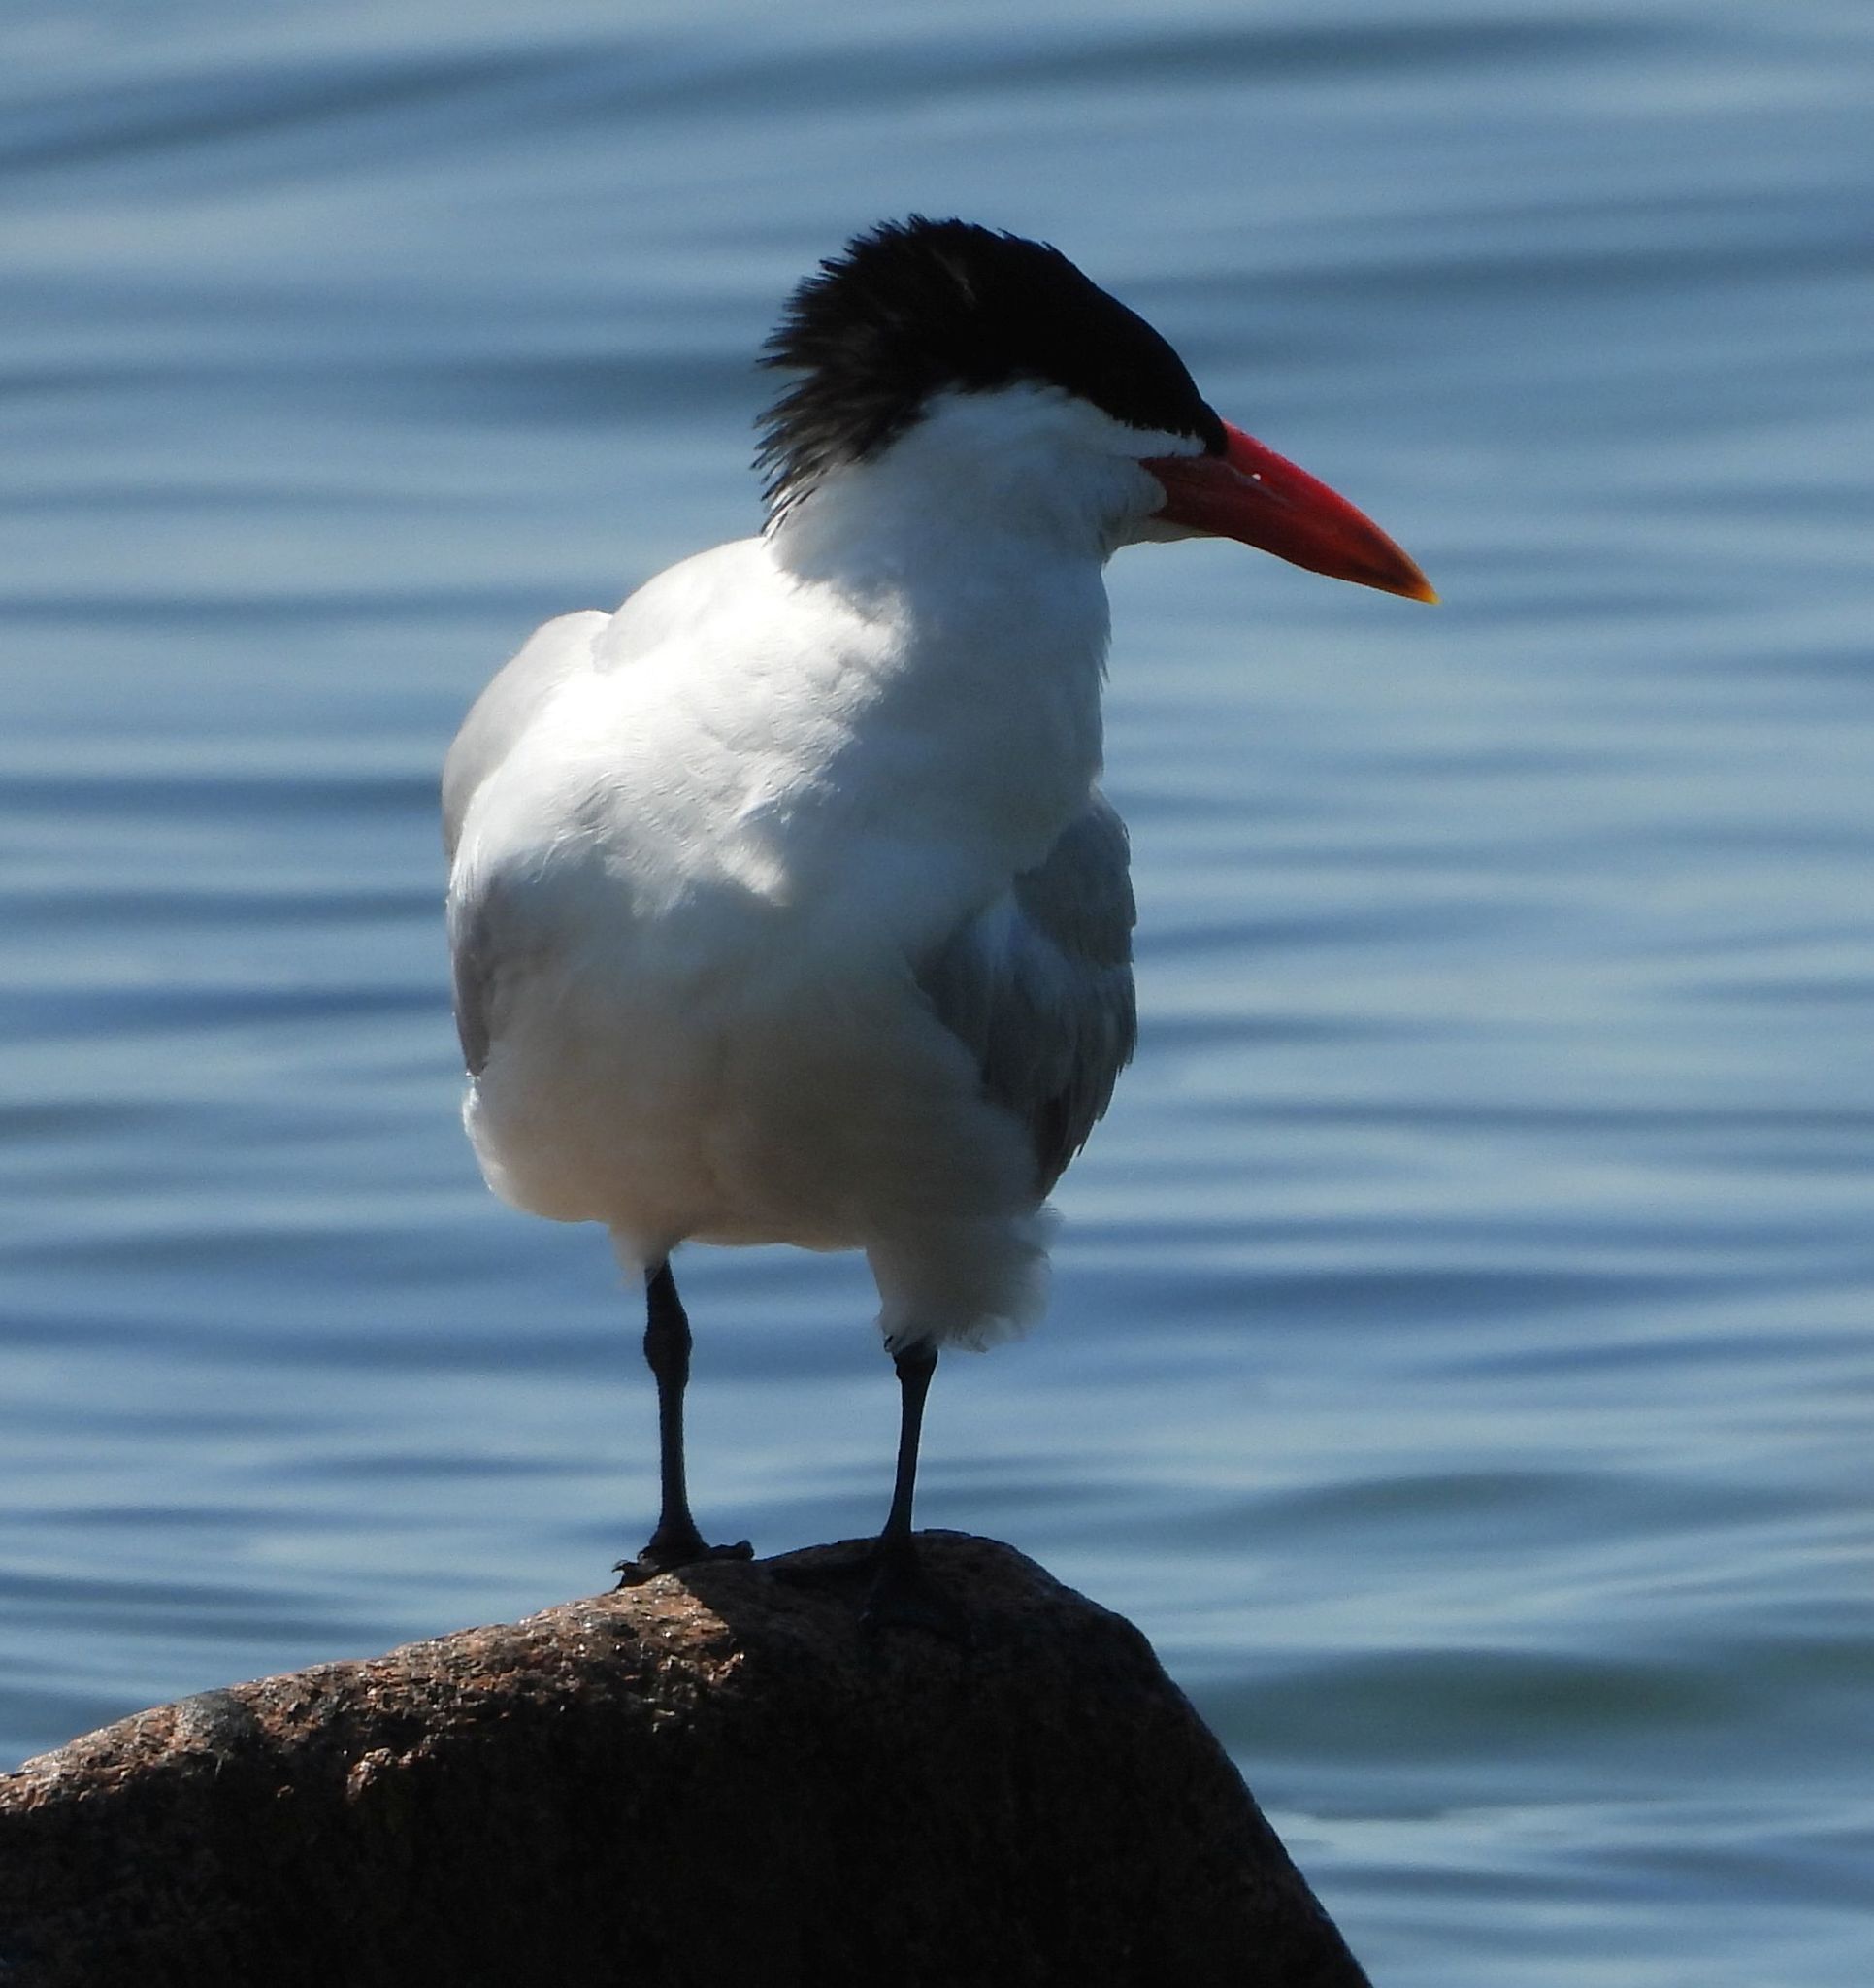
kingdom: Animalia
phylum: Chordata
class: Aves
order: Charadriiformes
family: Laridae
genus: Hydroprogne
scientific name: Hydroprogne caspia
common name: Caspian tern
